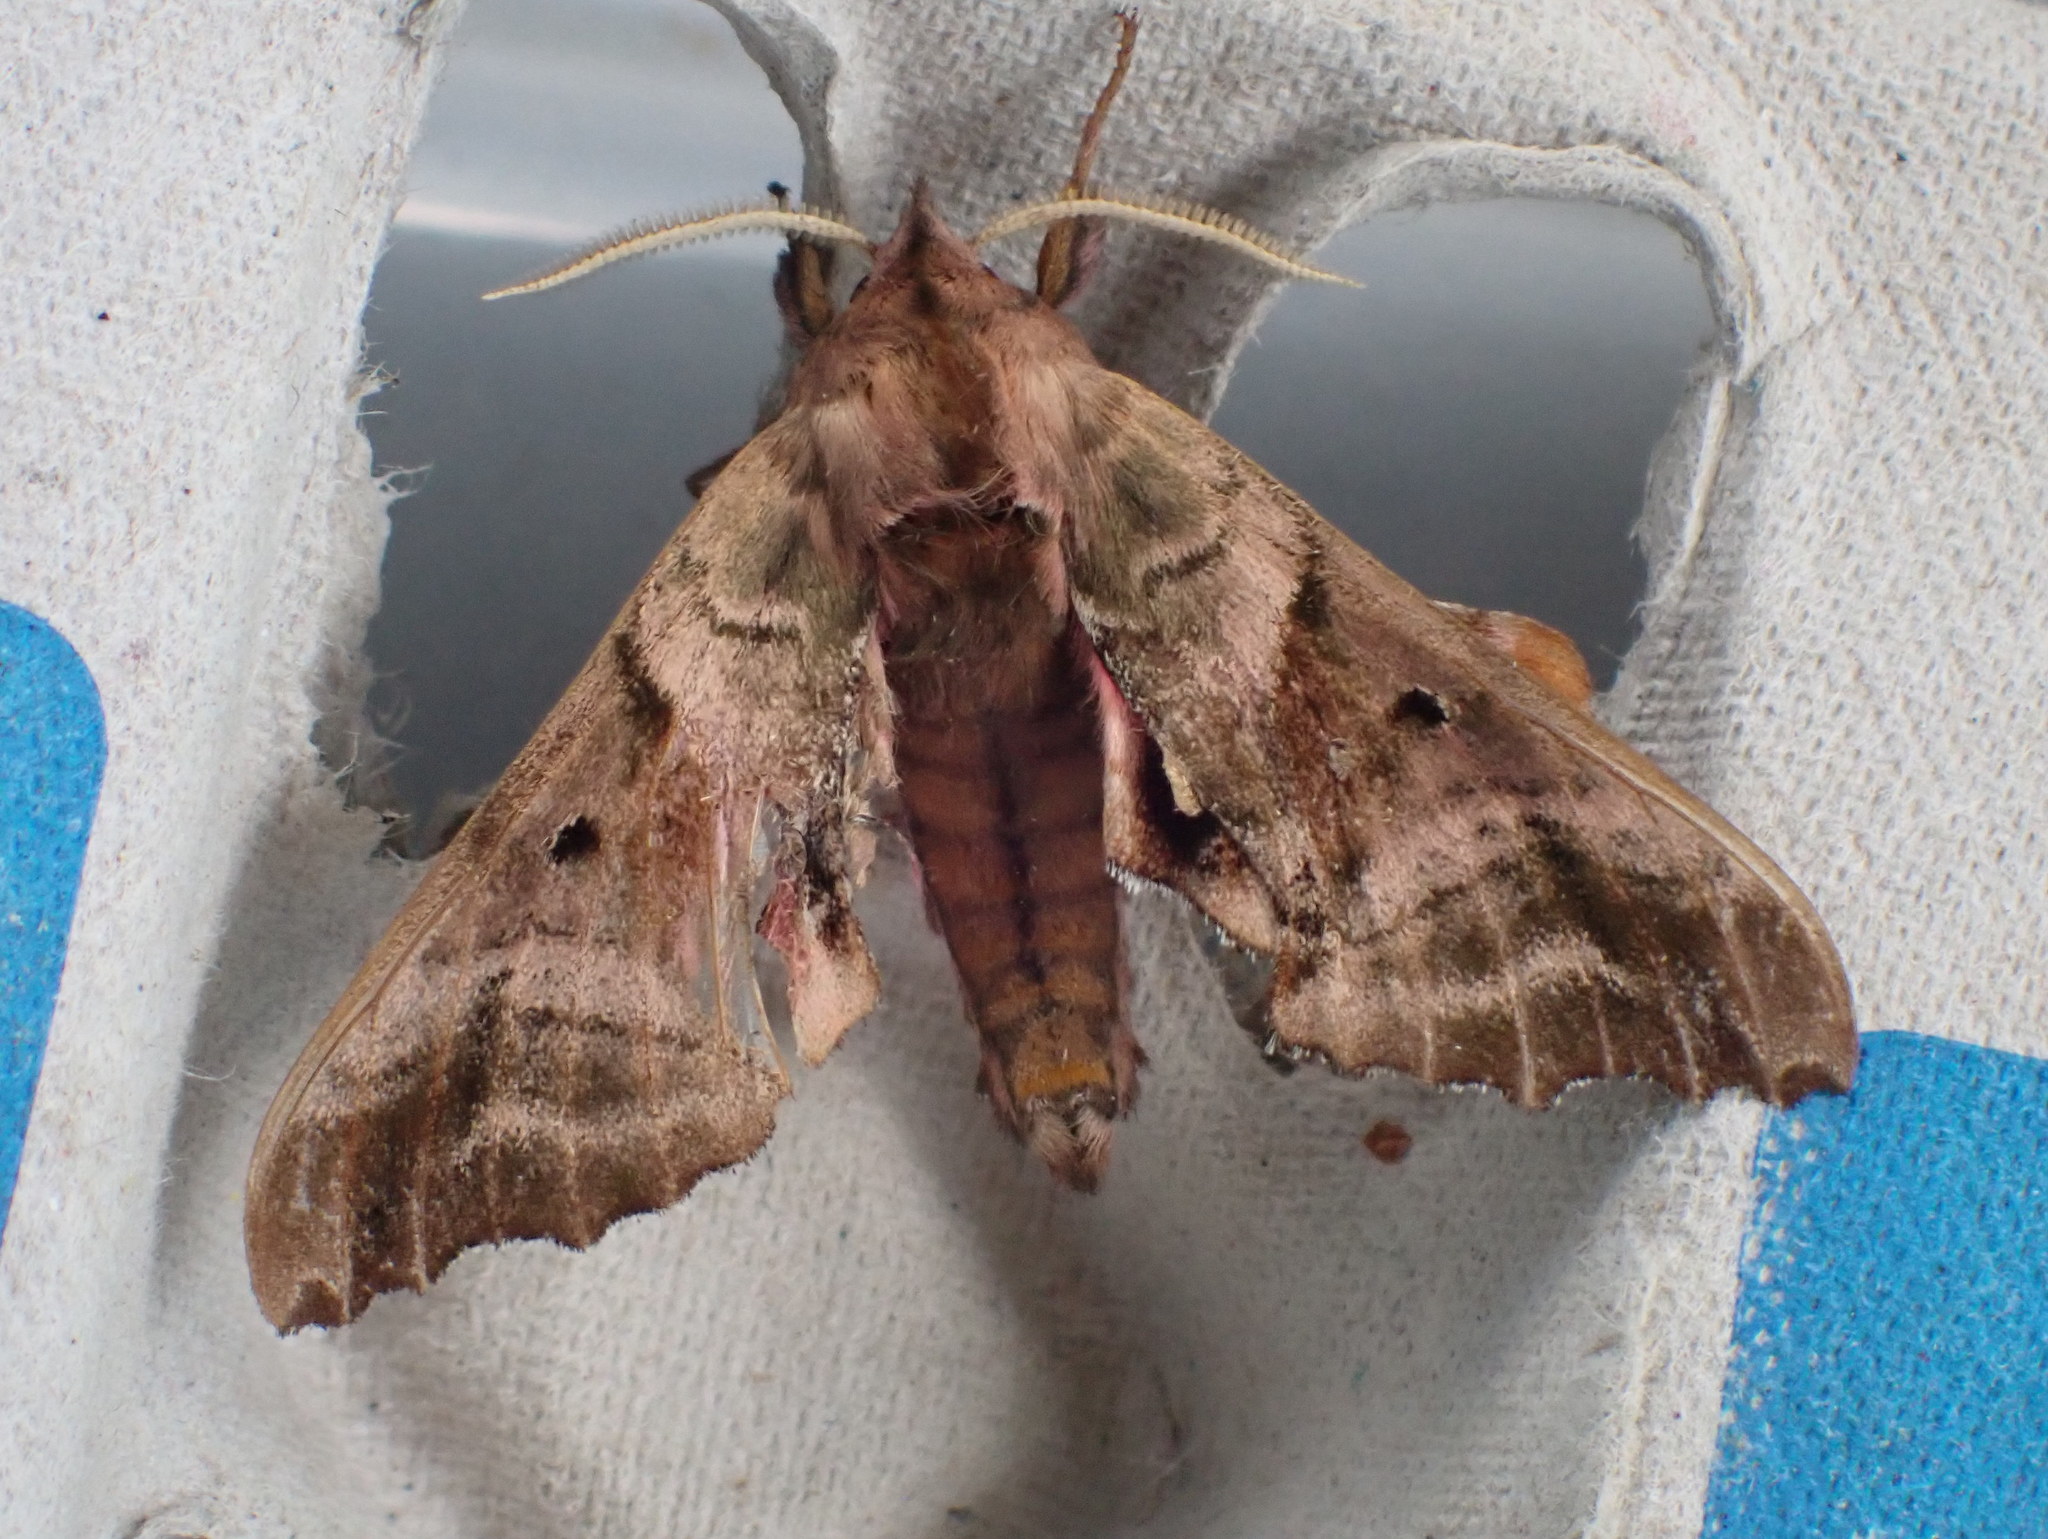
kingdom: Animalia
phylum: Arthropoda
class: Insecta
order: Lepidoptera
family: Sphingidae
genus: Paonias
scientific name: Paonias excaecata
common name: Blind-eyed sphinx
